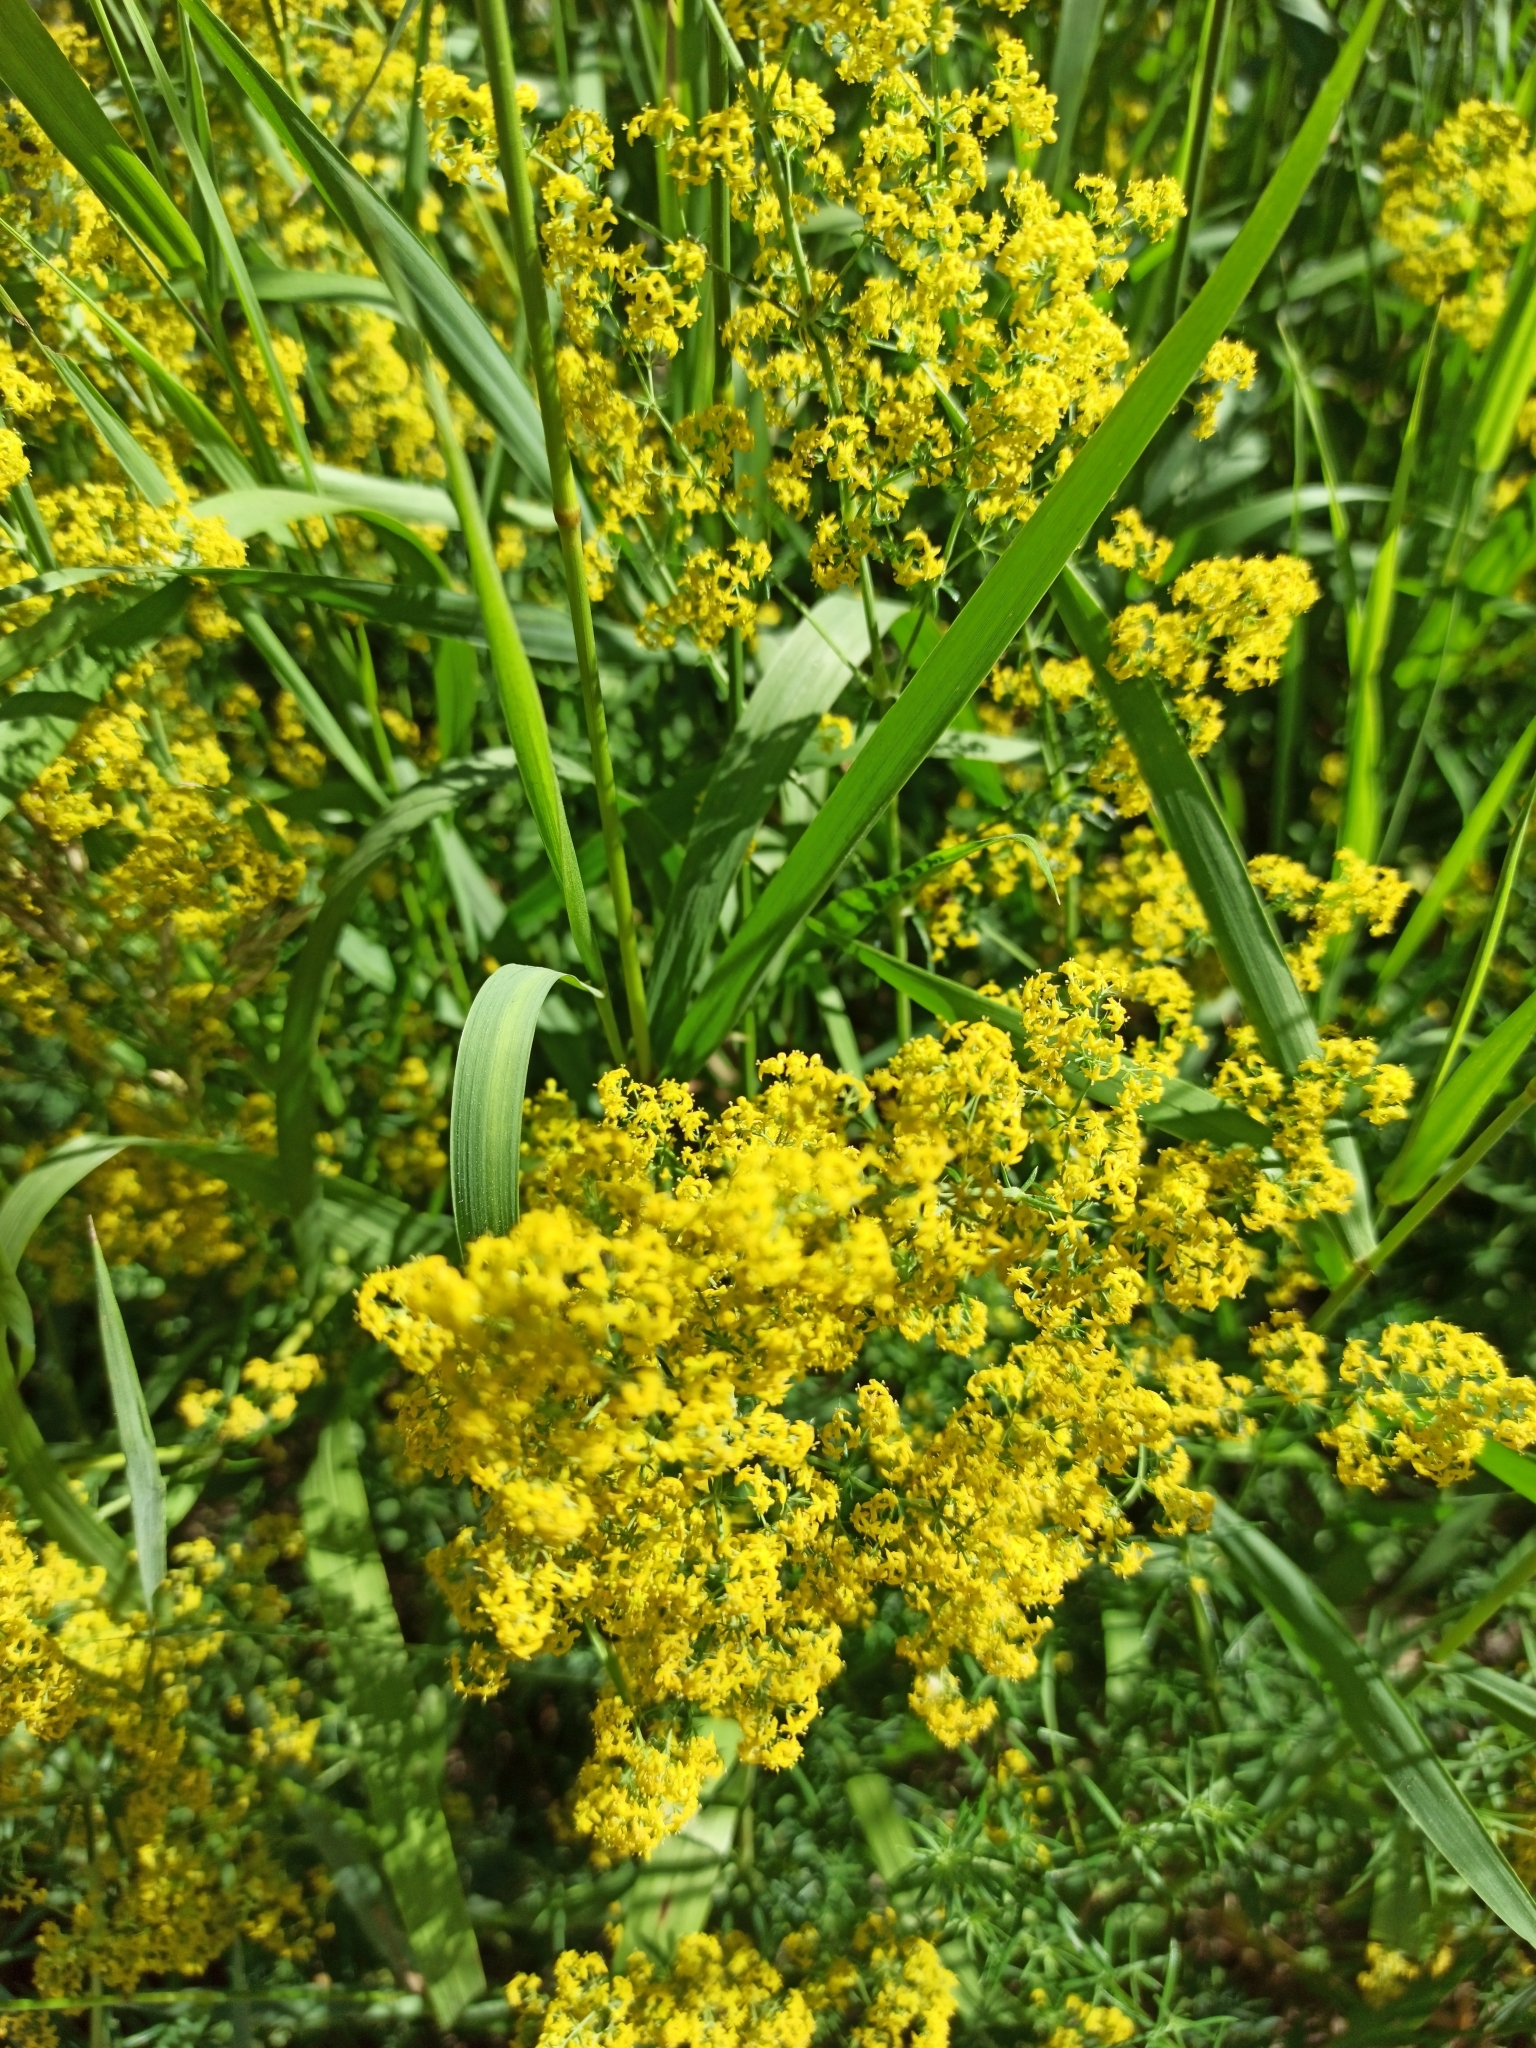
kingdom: Plantae
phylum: Tracheophyta
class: Magnoliopsida
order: Gentianales
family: Rubiaceae
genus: Galium
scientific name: Galium verum
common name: Lady's bedstraw
